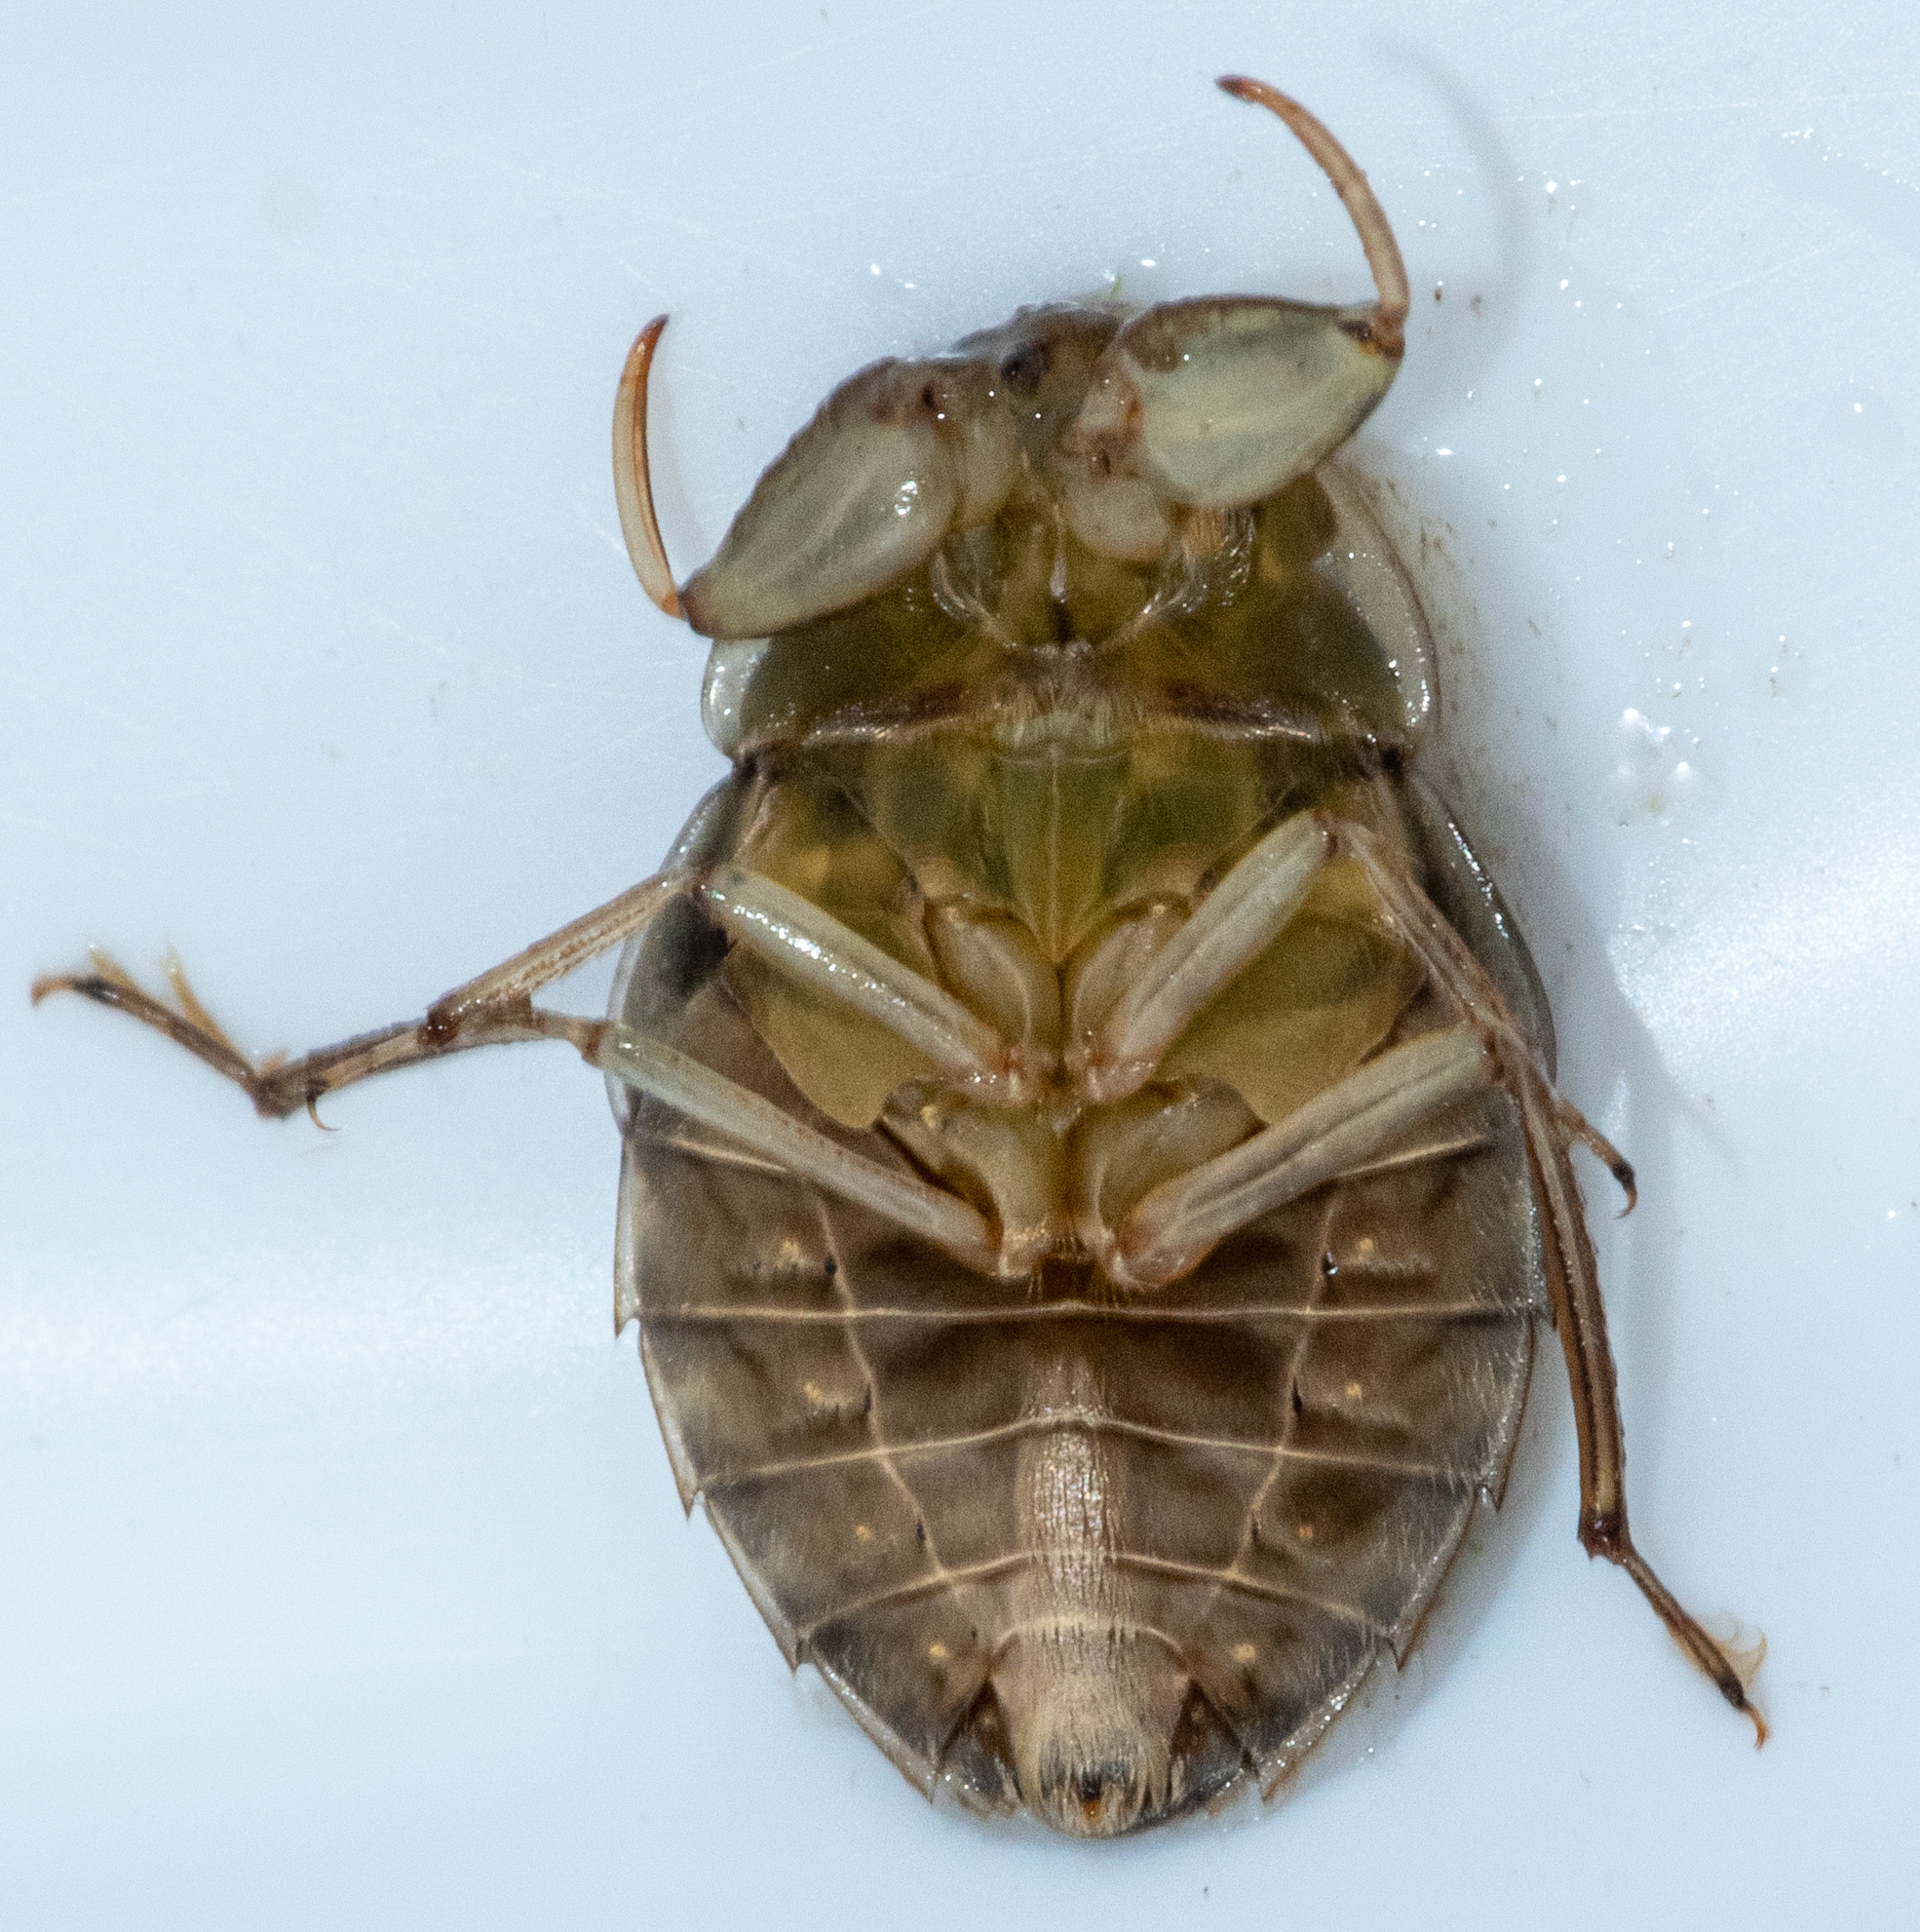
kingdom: Animalia
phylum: Arthropoda
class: Insecta
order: Hemiptera
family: Naucoridae
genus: Ambrysus
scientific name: Ambrysus mormon
